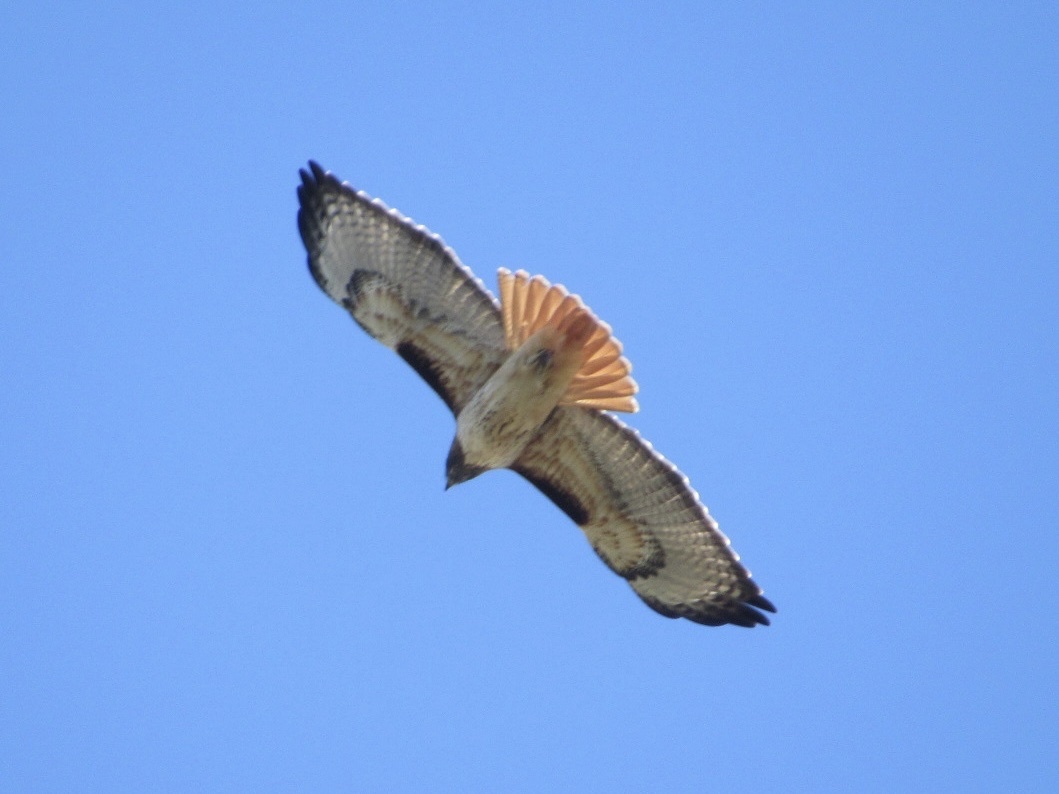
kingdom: Animalia
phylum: Chordata
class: Aves
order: Accipitriformes
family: Accipitridae
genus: Buteo
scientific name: Buteo jamaicensis
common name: Red-tailed hawk
